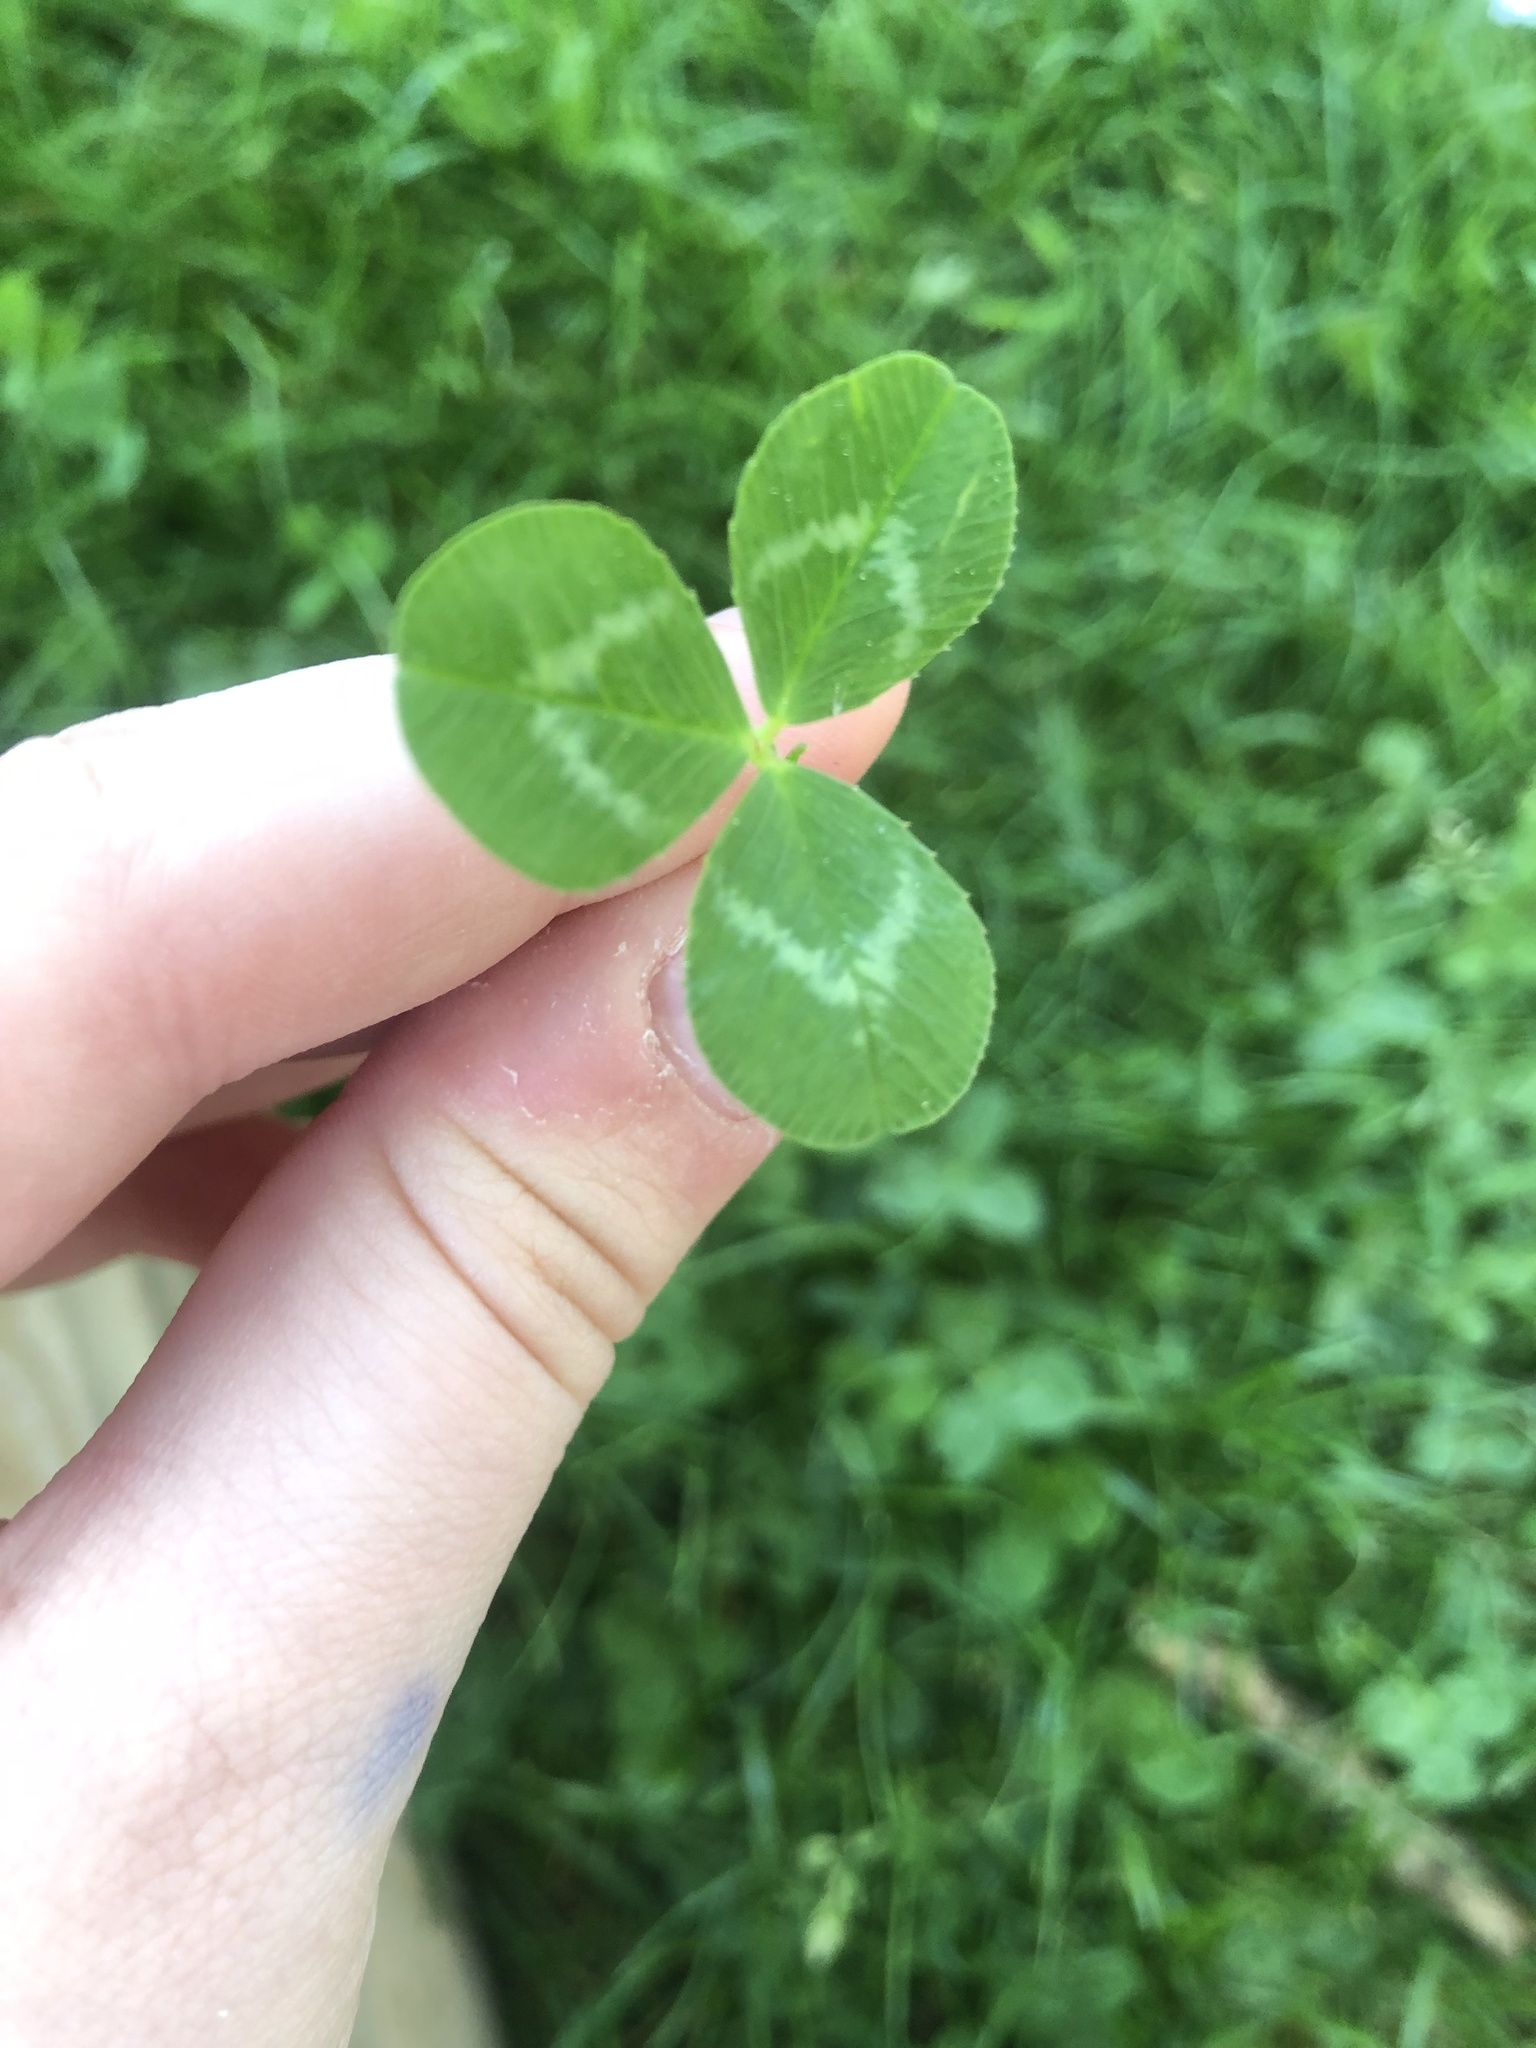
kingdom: Plantae
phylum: Tracheophyta
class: Magnoliopsida
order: Fabales
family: Fabaceae
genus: Trifolium
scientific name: Trifolium repens
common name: White clover
